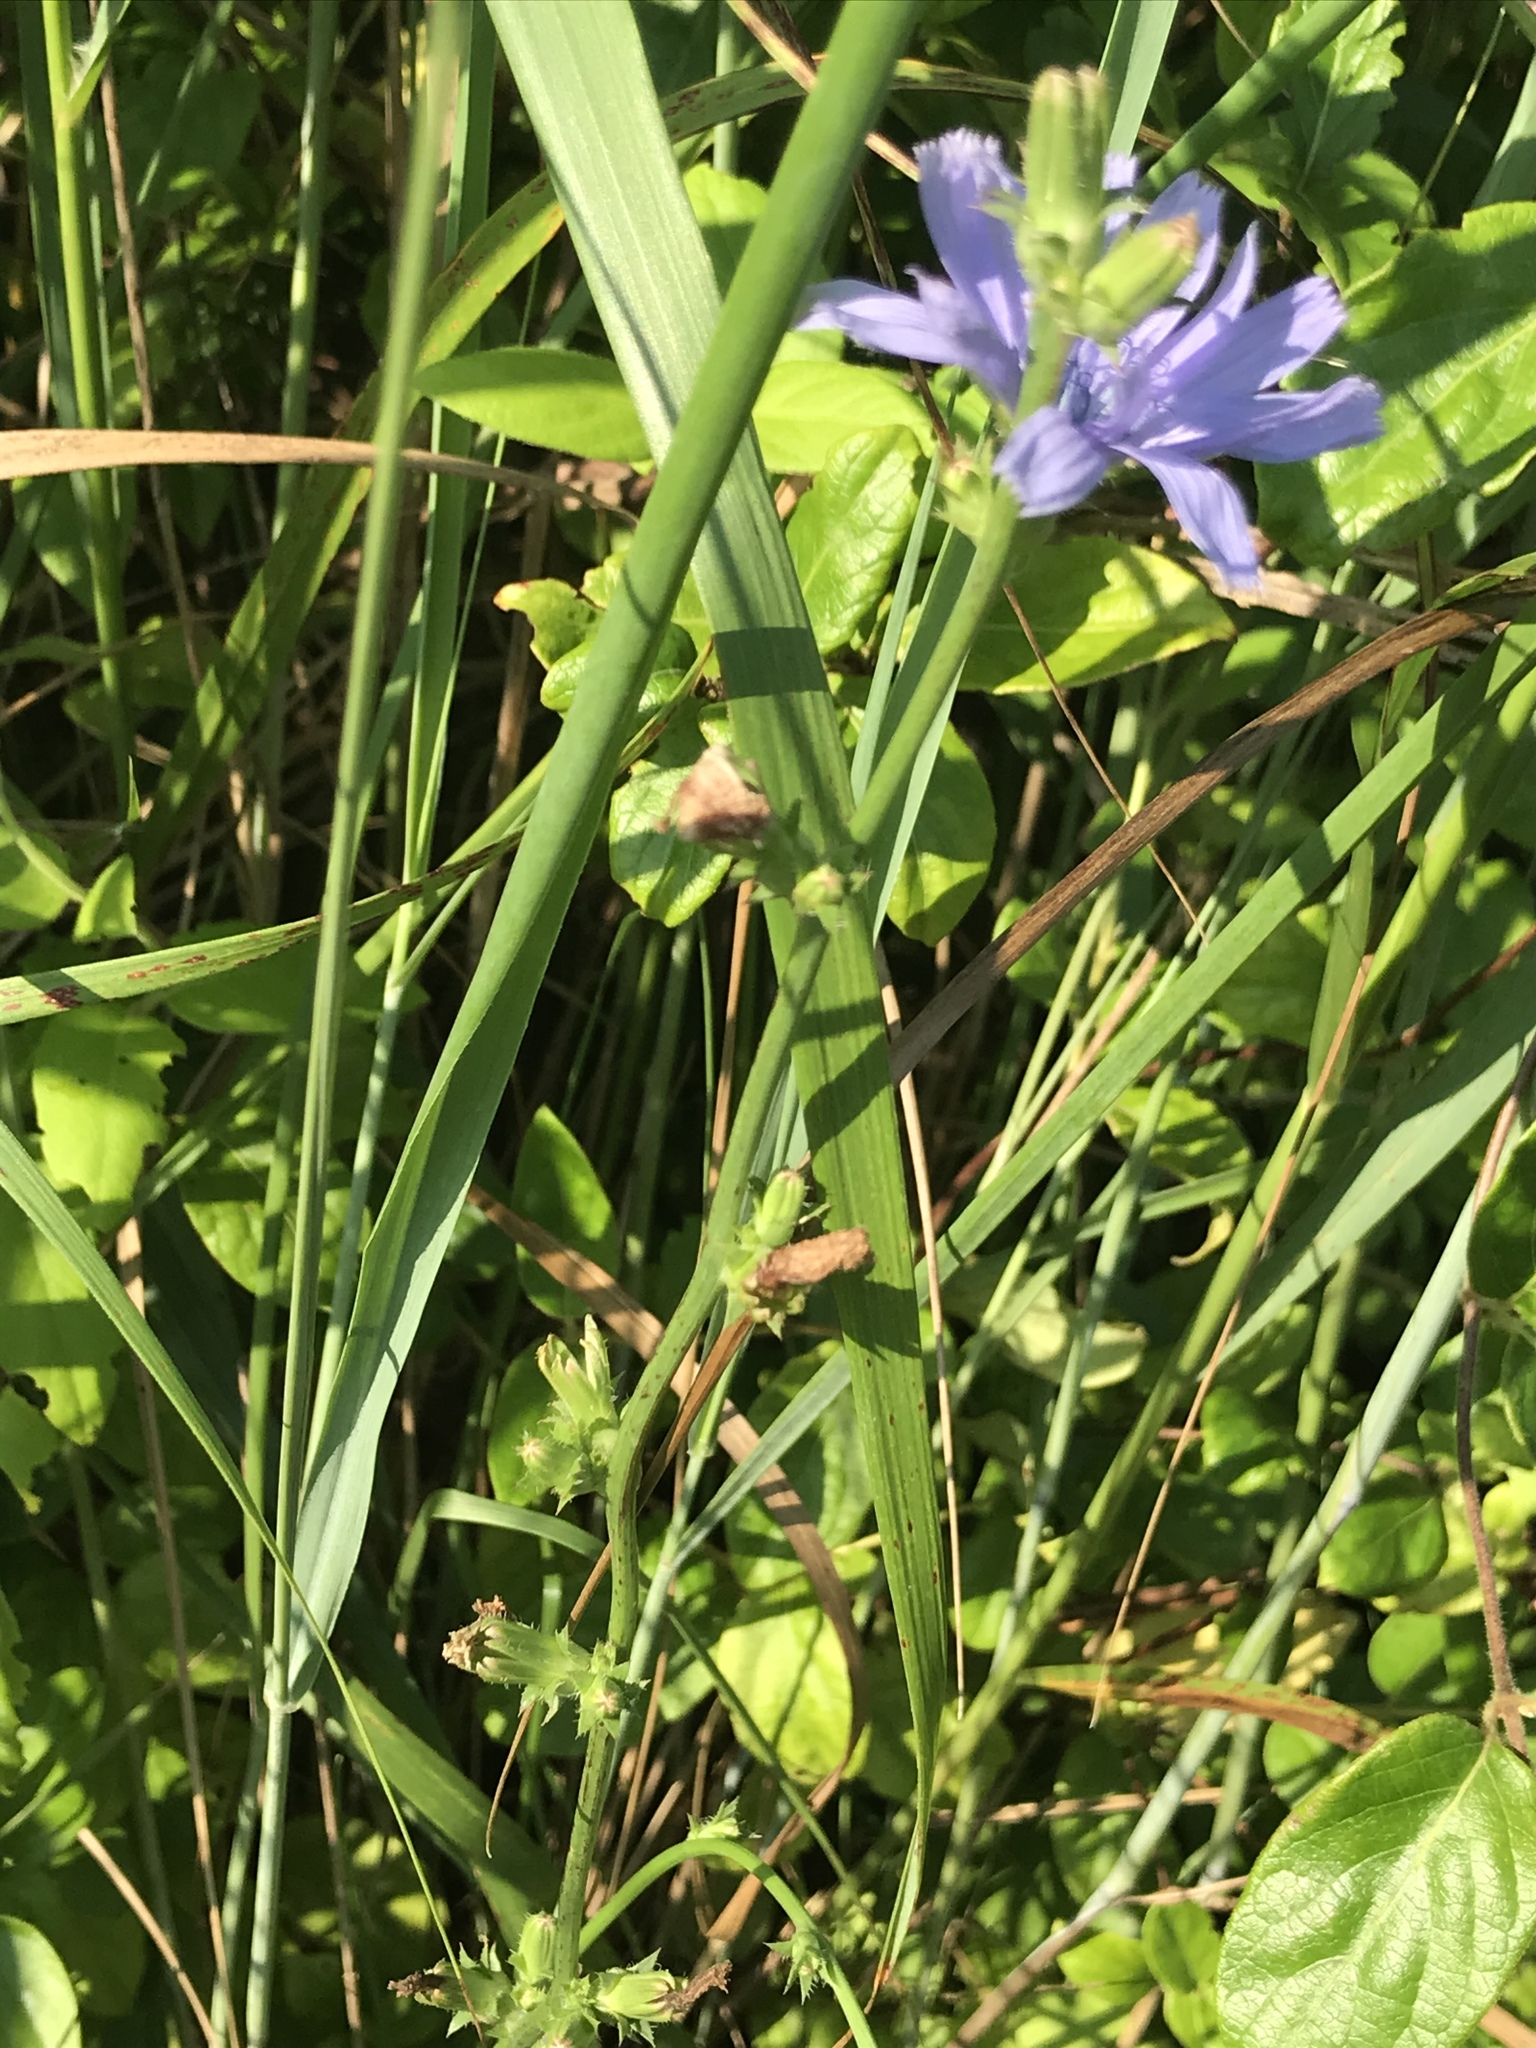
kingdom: Plantae
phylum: Tracheophyta
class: Magnoliopsida
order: Asterales
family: Asteraceae
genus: Cichorium
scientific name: Cichorium intybus
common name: Chicory
